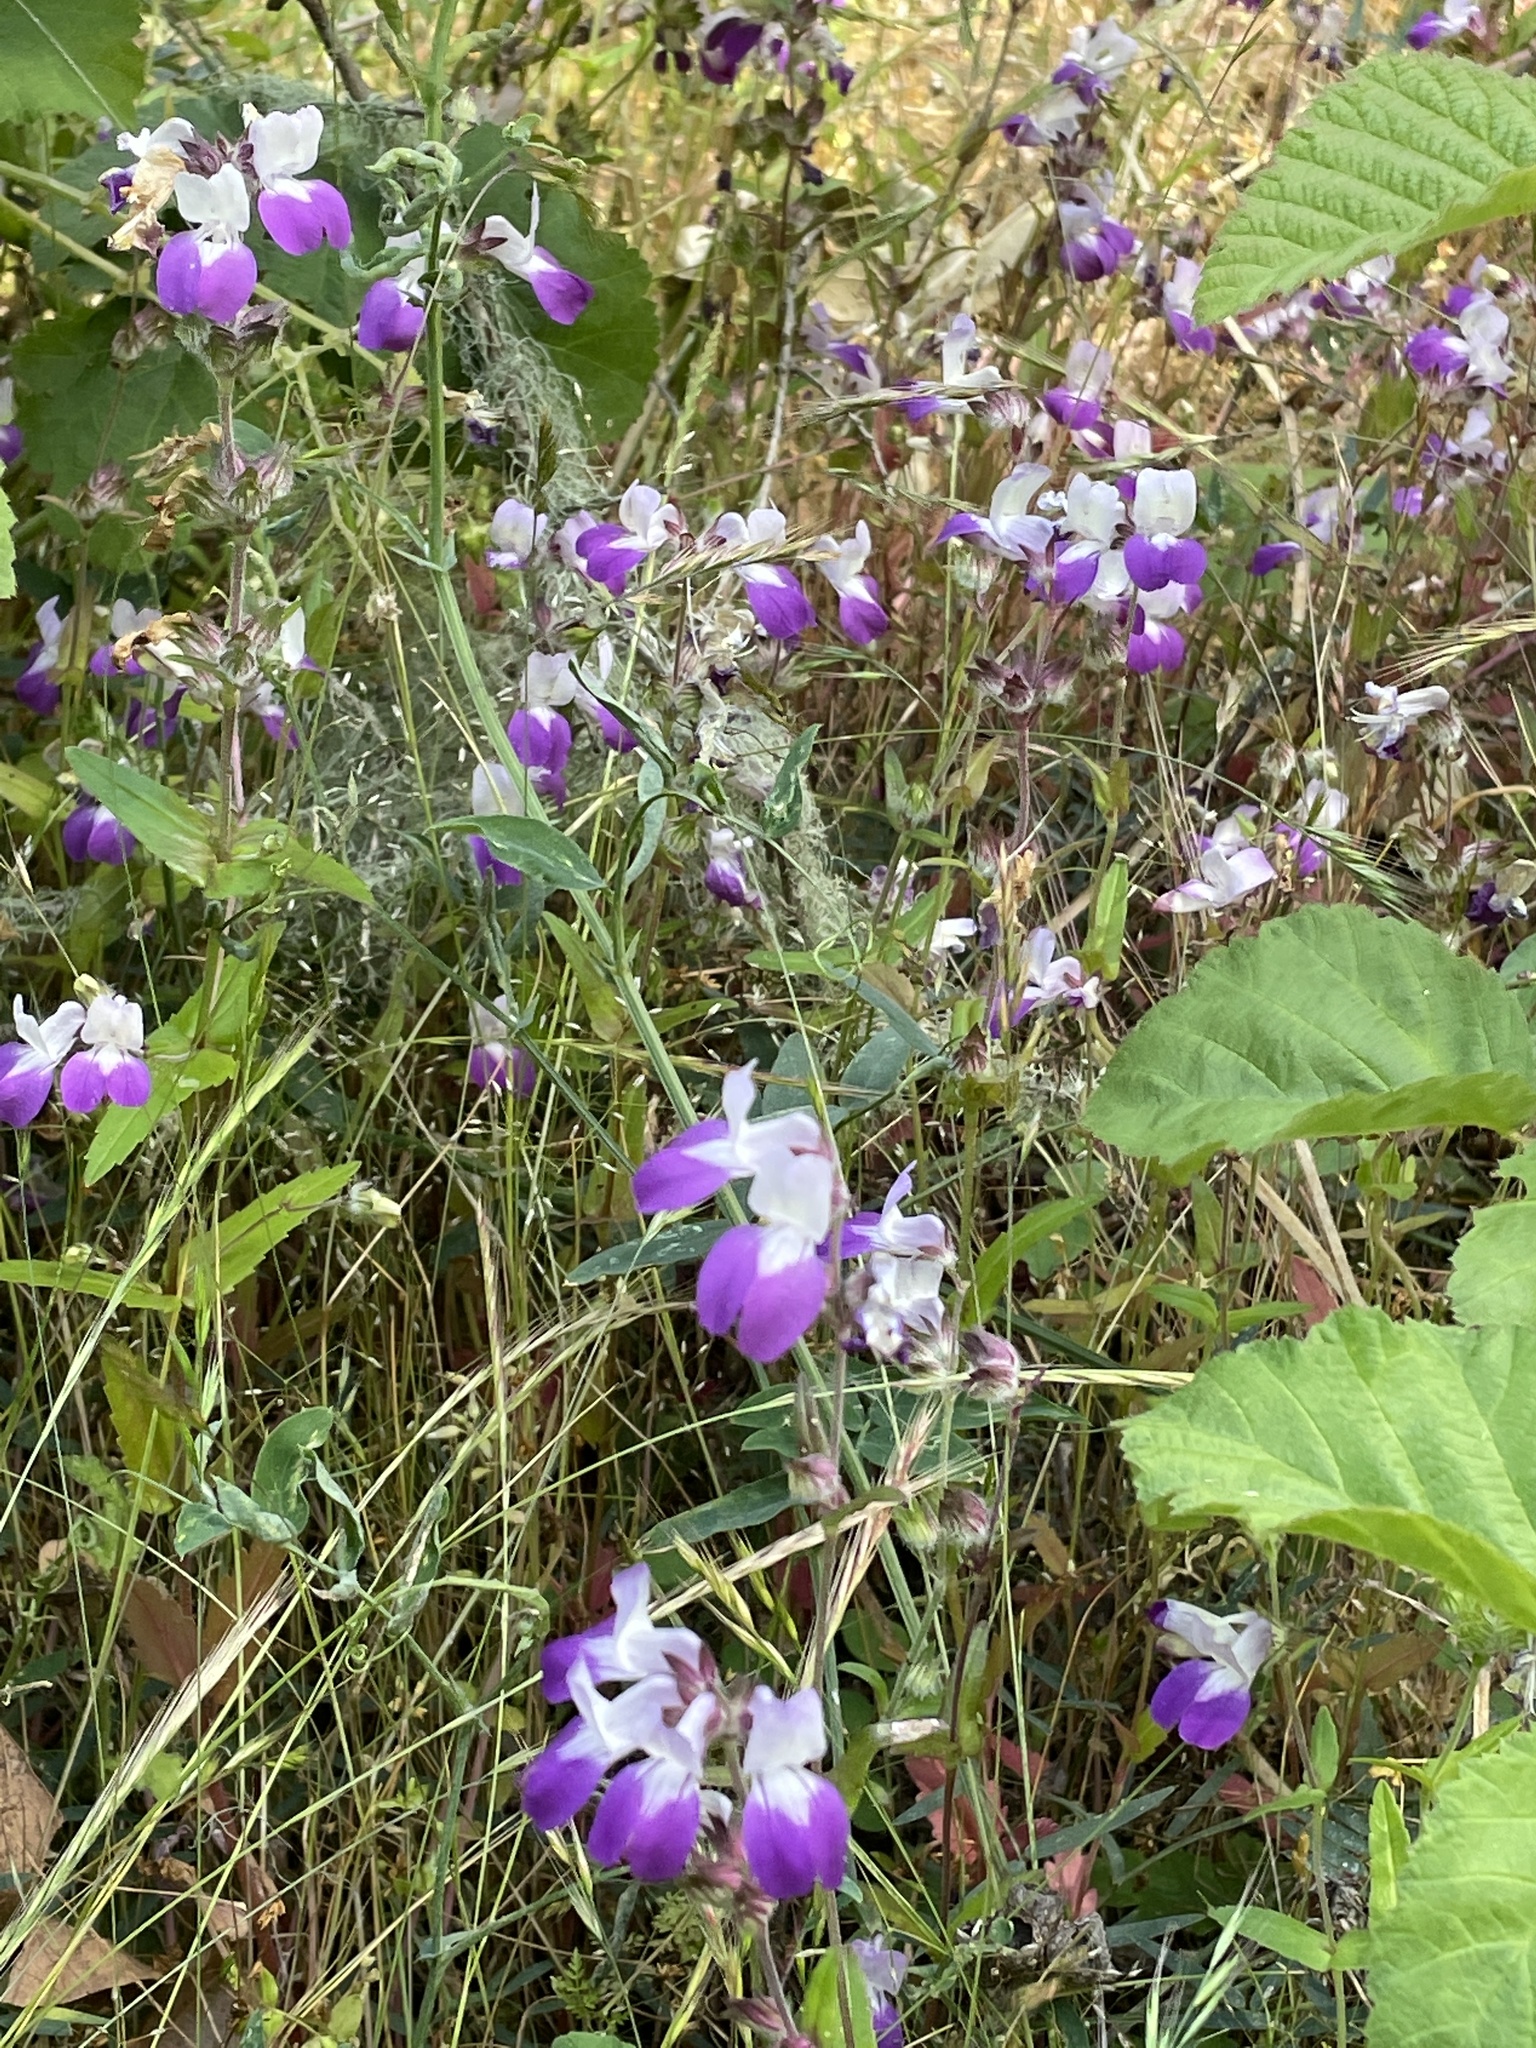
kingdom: Plantae
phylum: Tracheophyta
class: Magnoliopsida
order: Lamiales
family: Plantaginaceae
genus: Collinsia
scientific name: Collinsia heterophylla
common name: Chinese-houses
